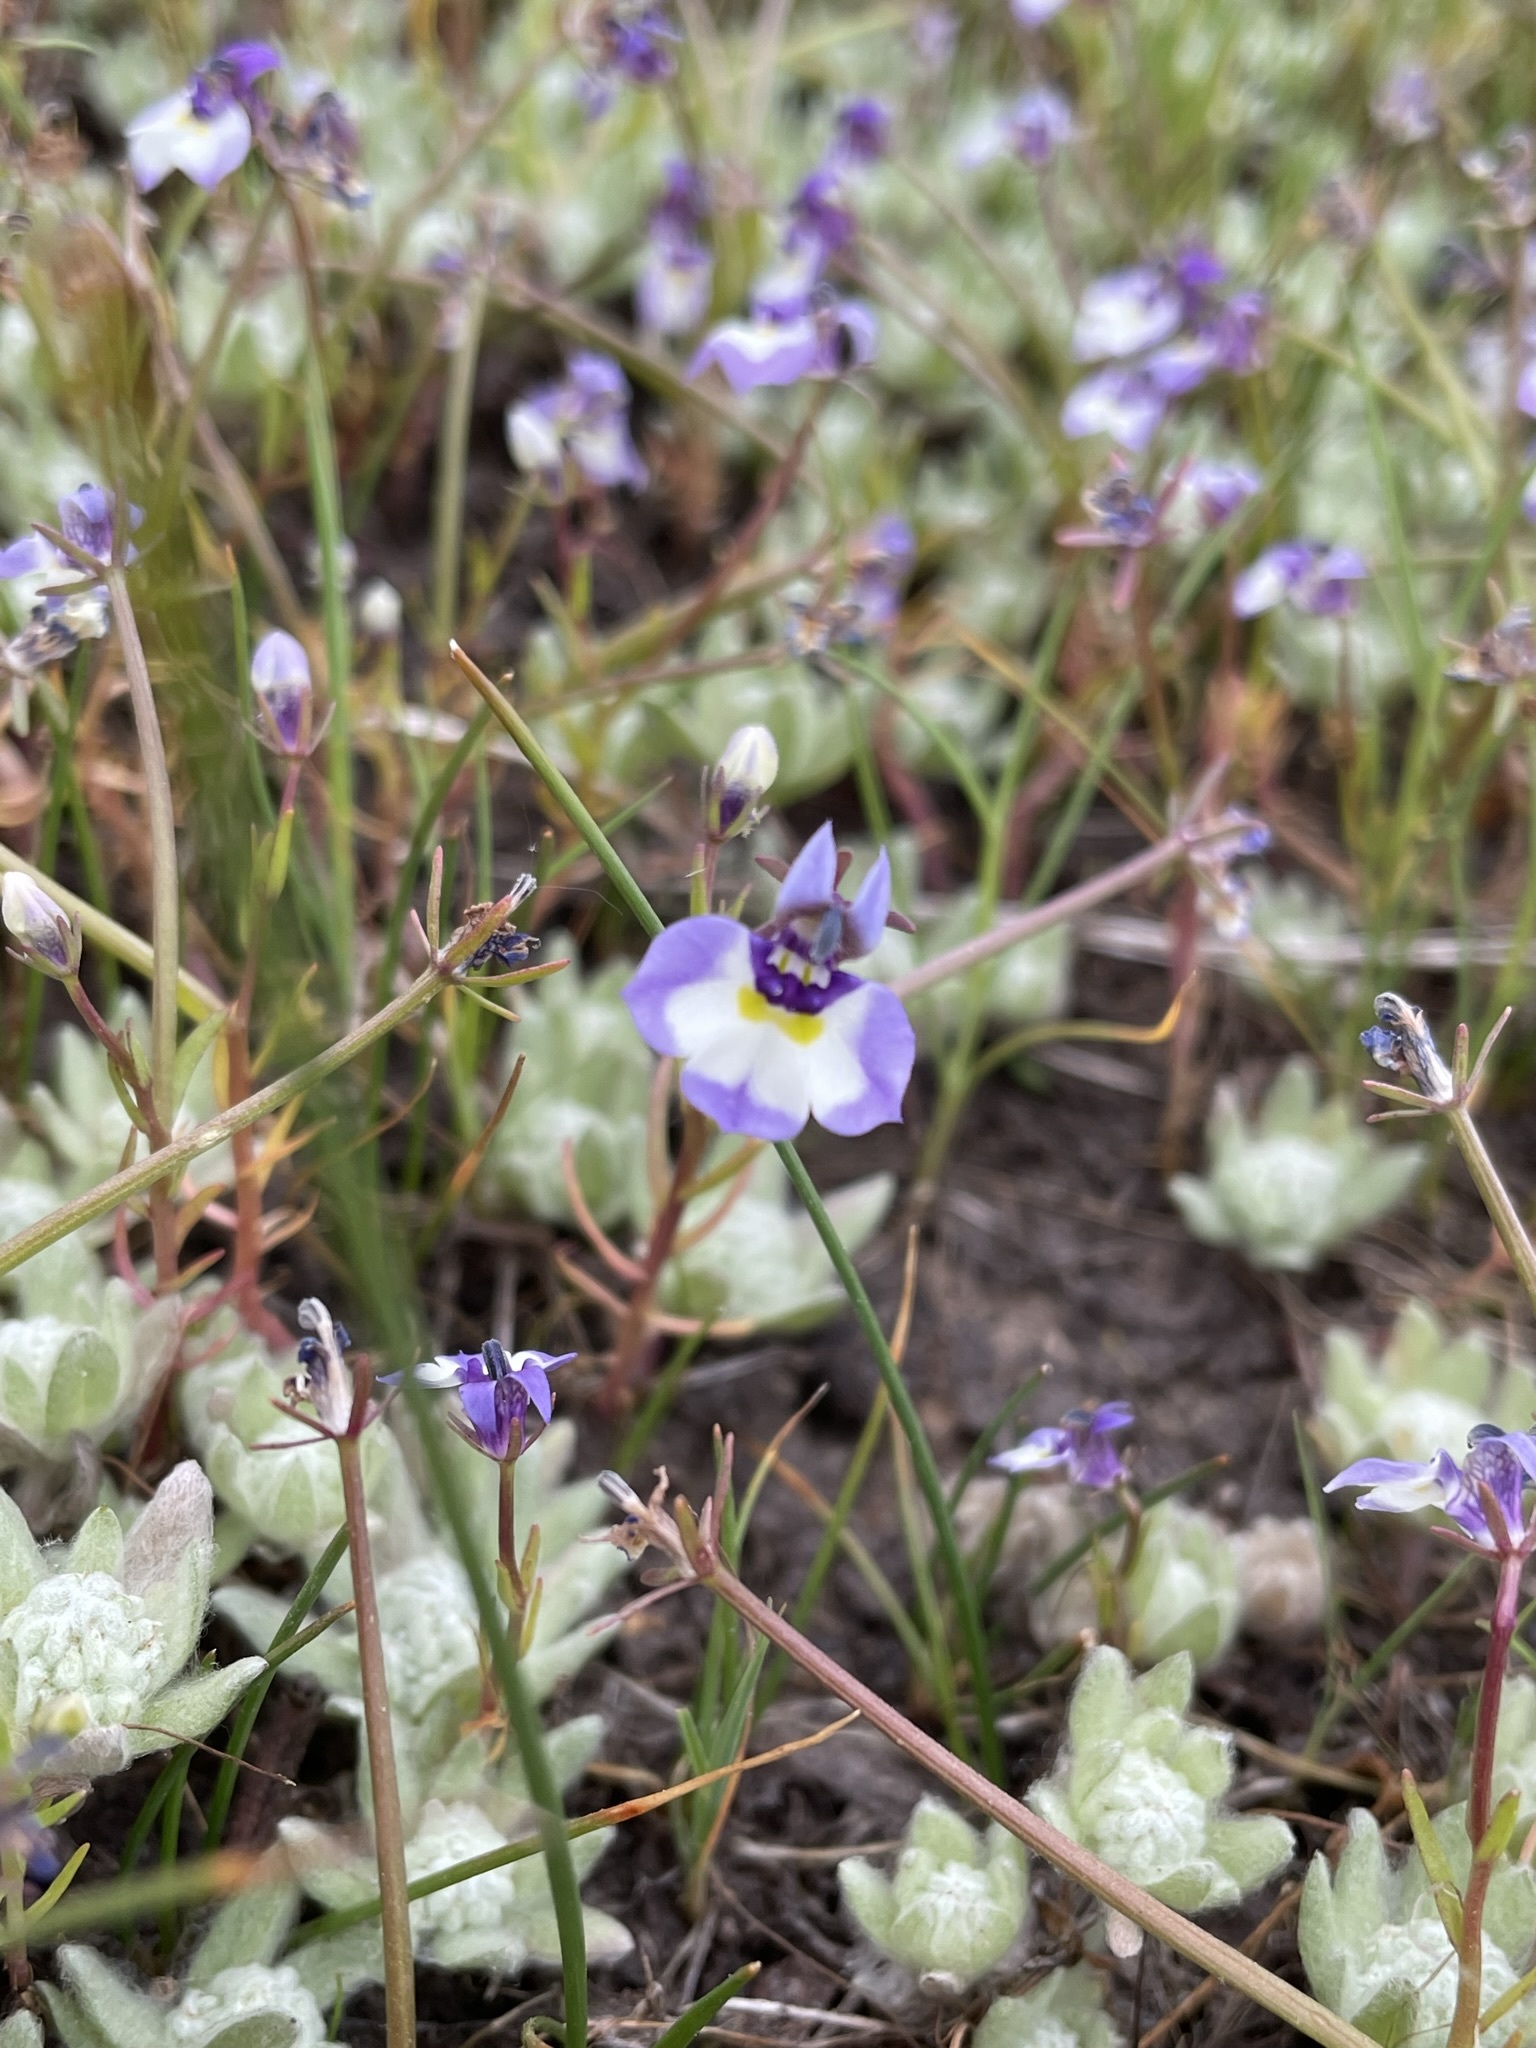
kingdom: Plantae
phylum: Tracheophyta
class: Magnoliopsida
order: Asterales
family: Campanulaceae
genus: Downingia
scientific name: Downingia bicornuta
